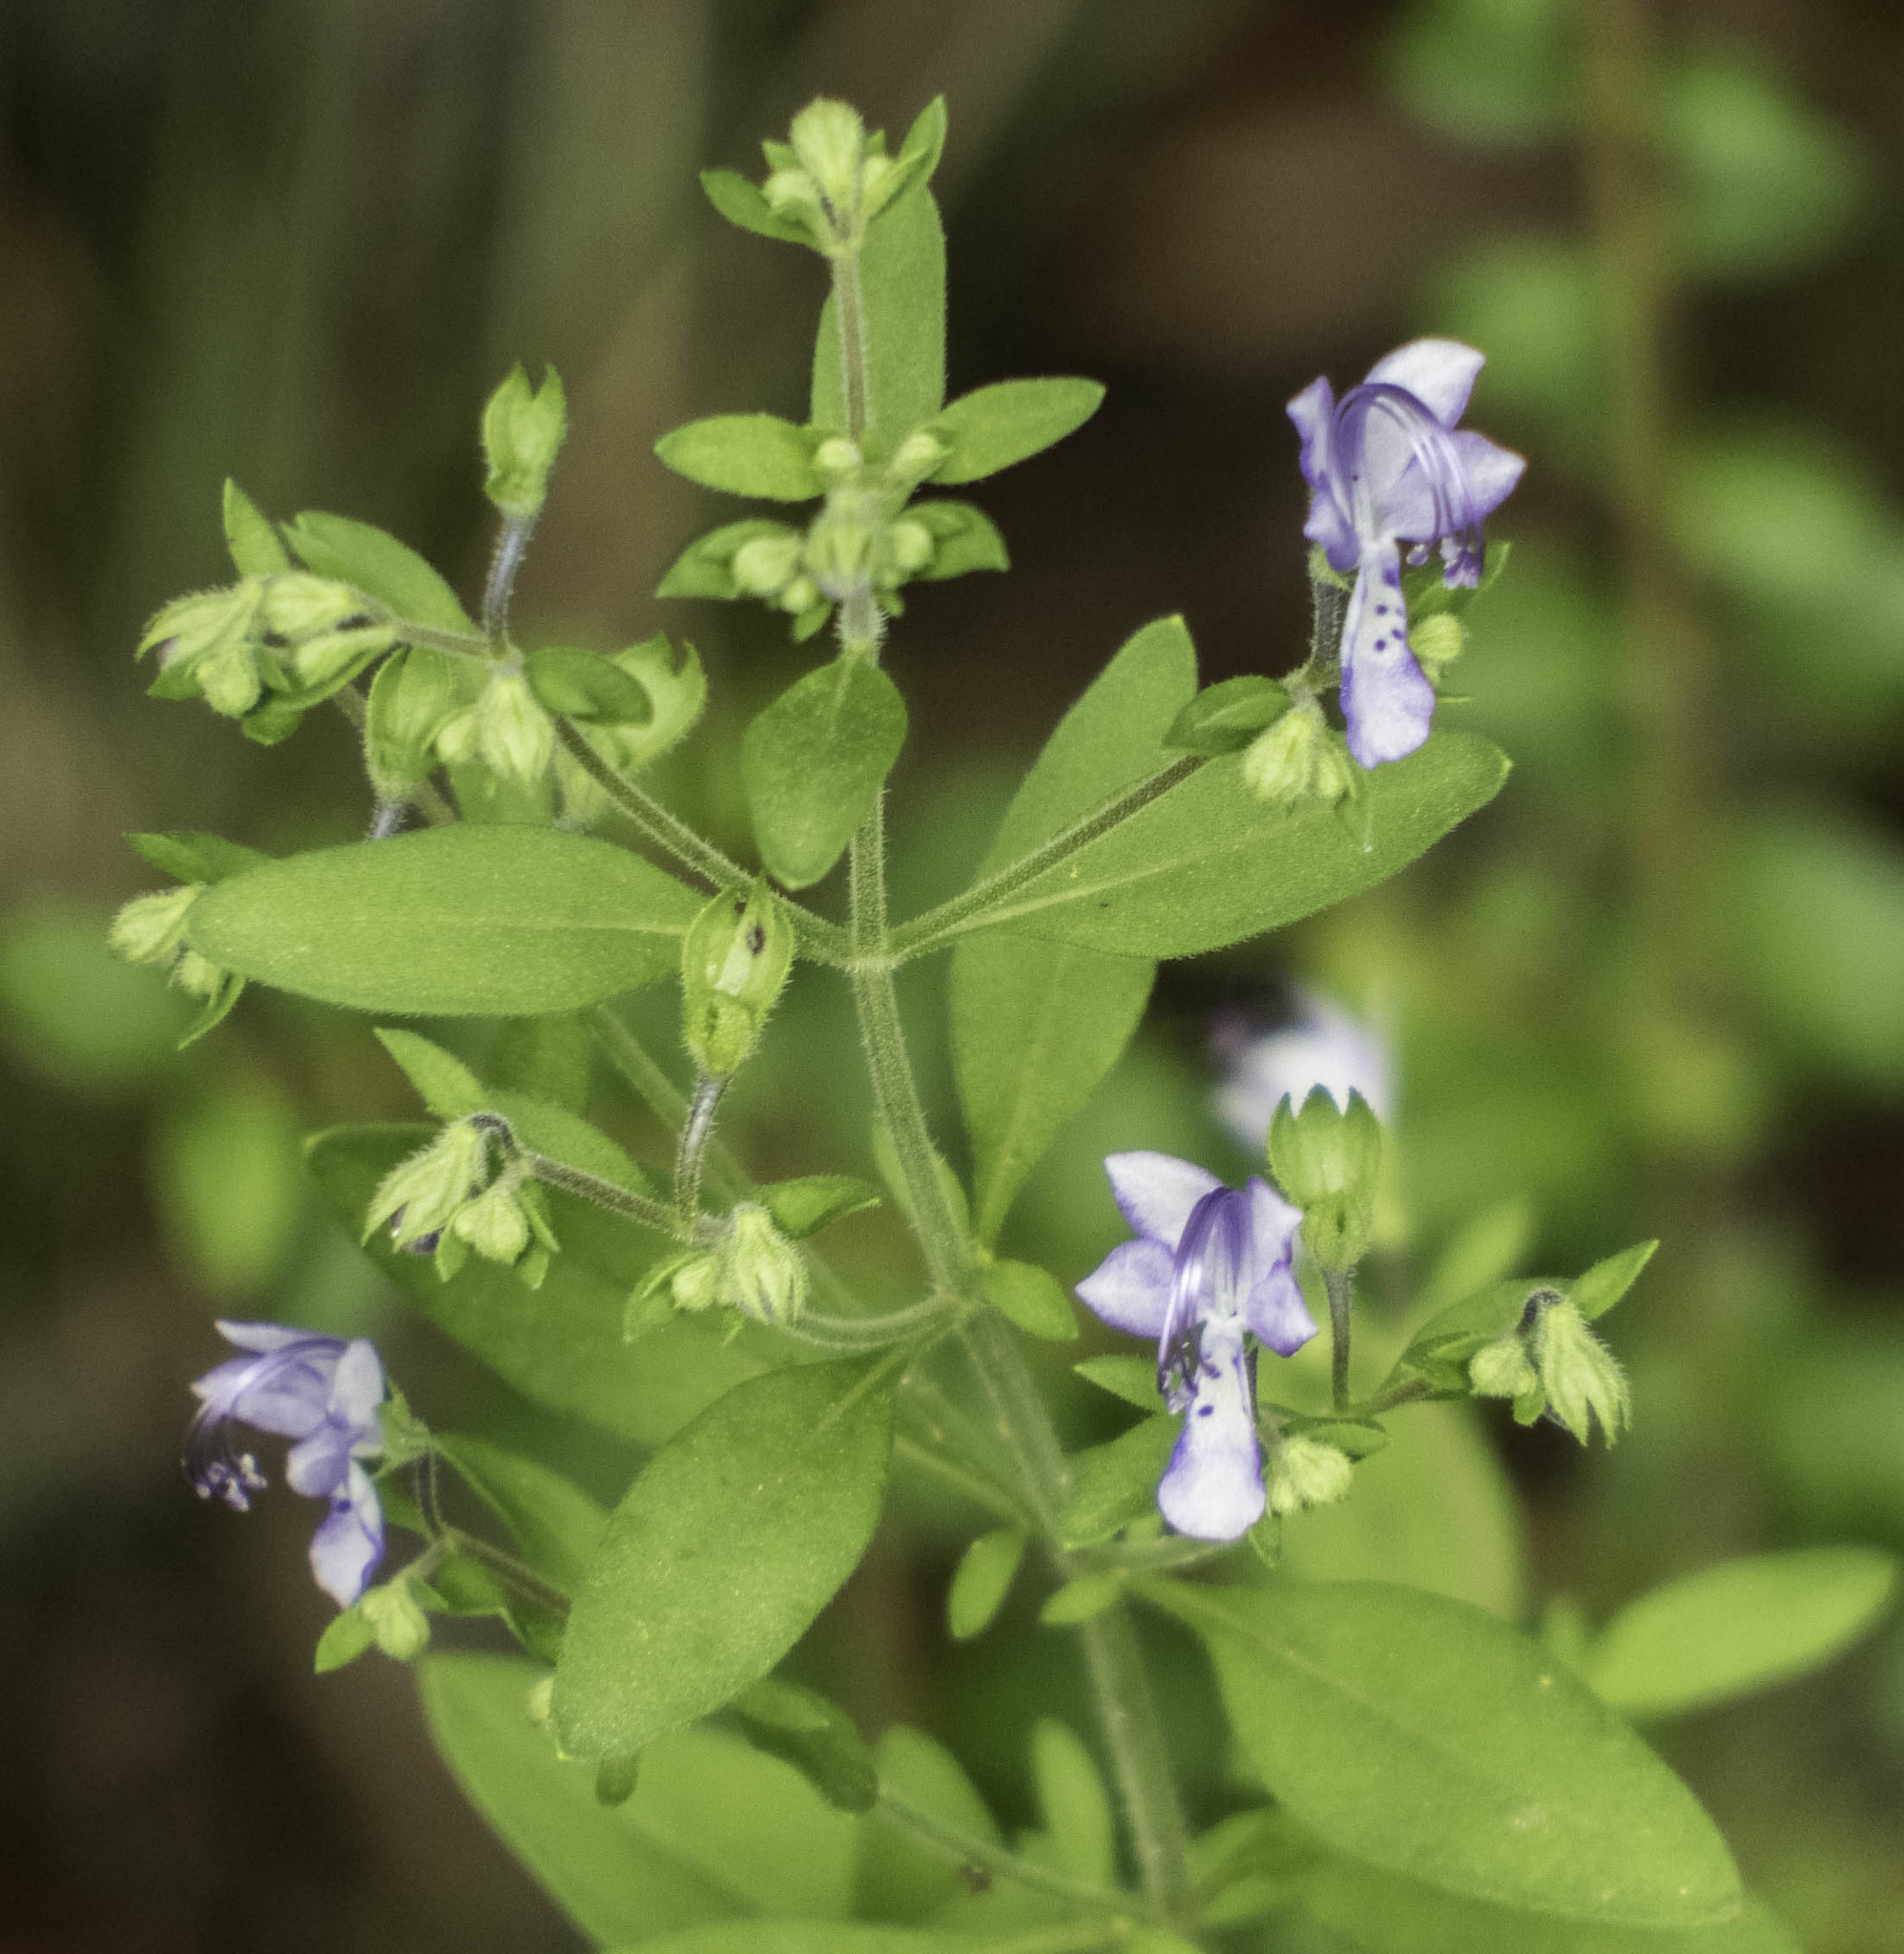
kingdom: Plantae
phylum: Tracheophyta
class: Magnoliopsida
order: Lamiales
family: Lamiaceae
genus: Trichostema
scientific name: Trichostema dichotomum
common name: Bastard pennyroyal
